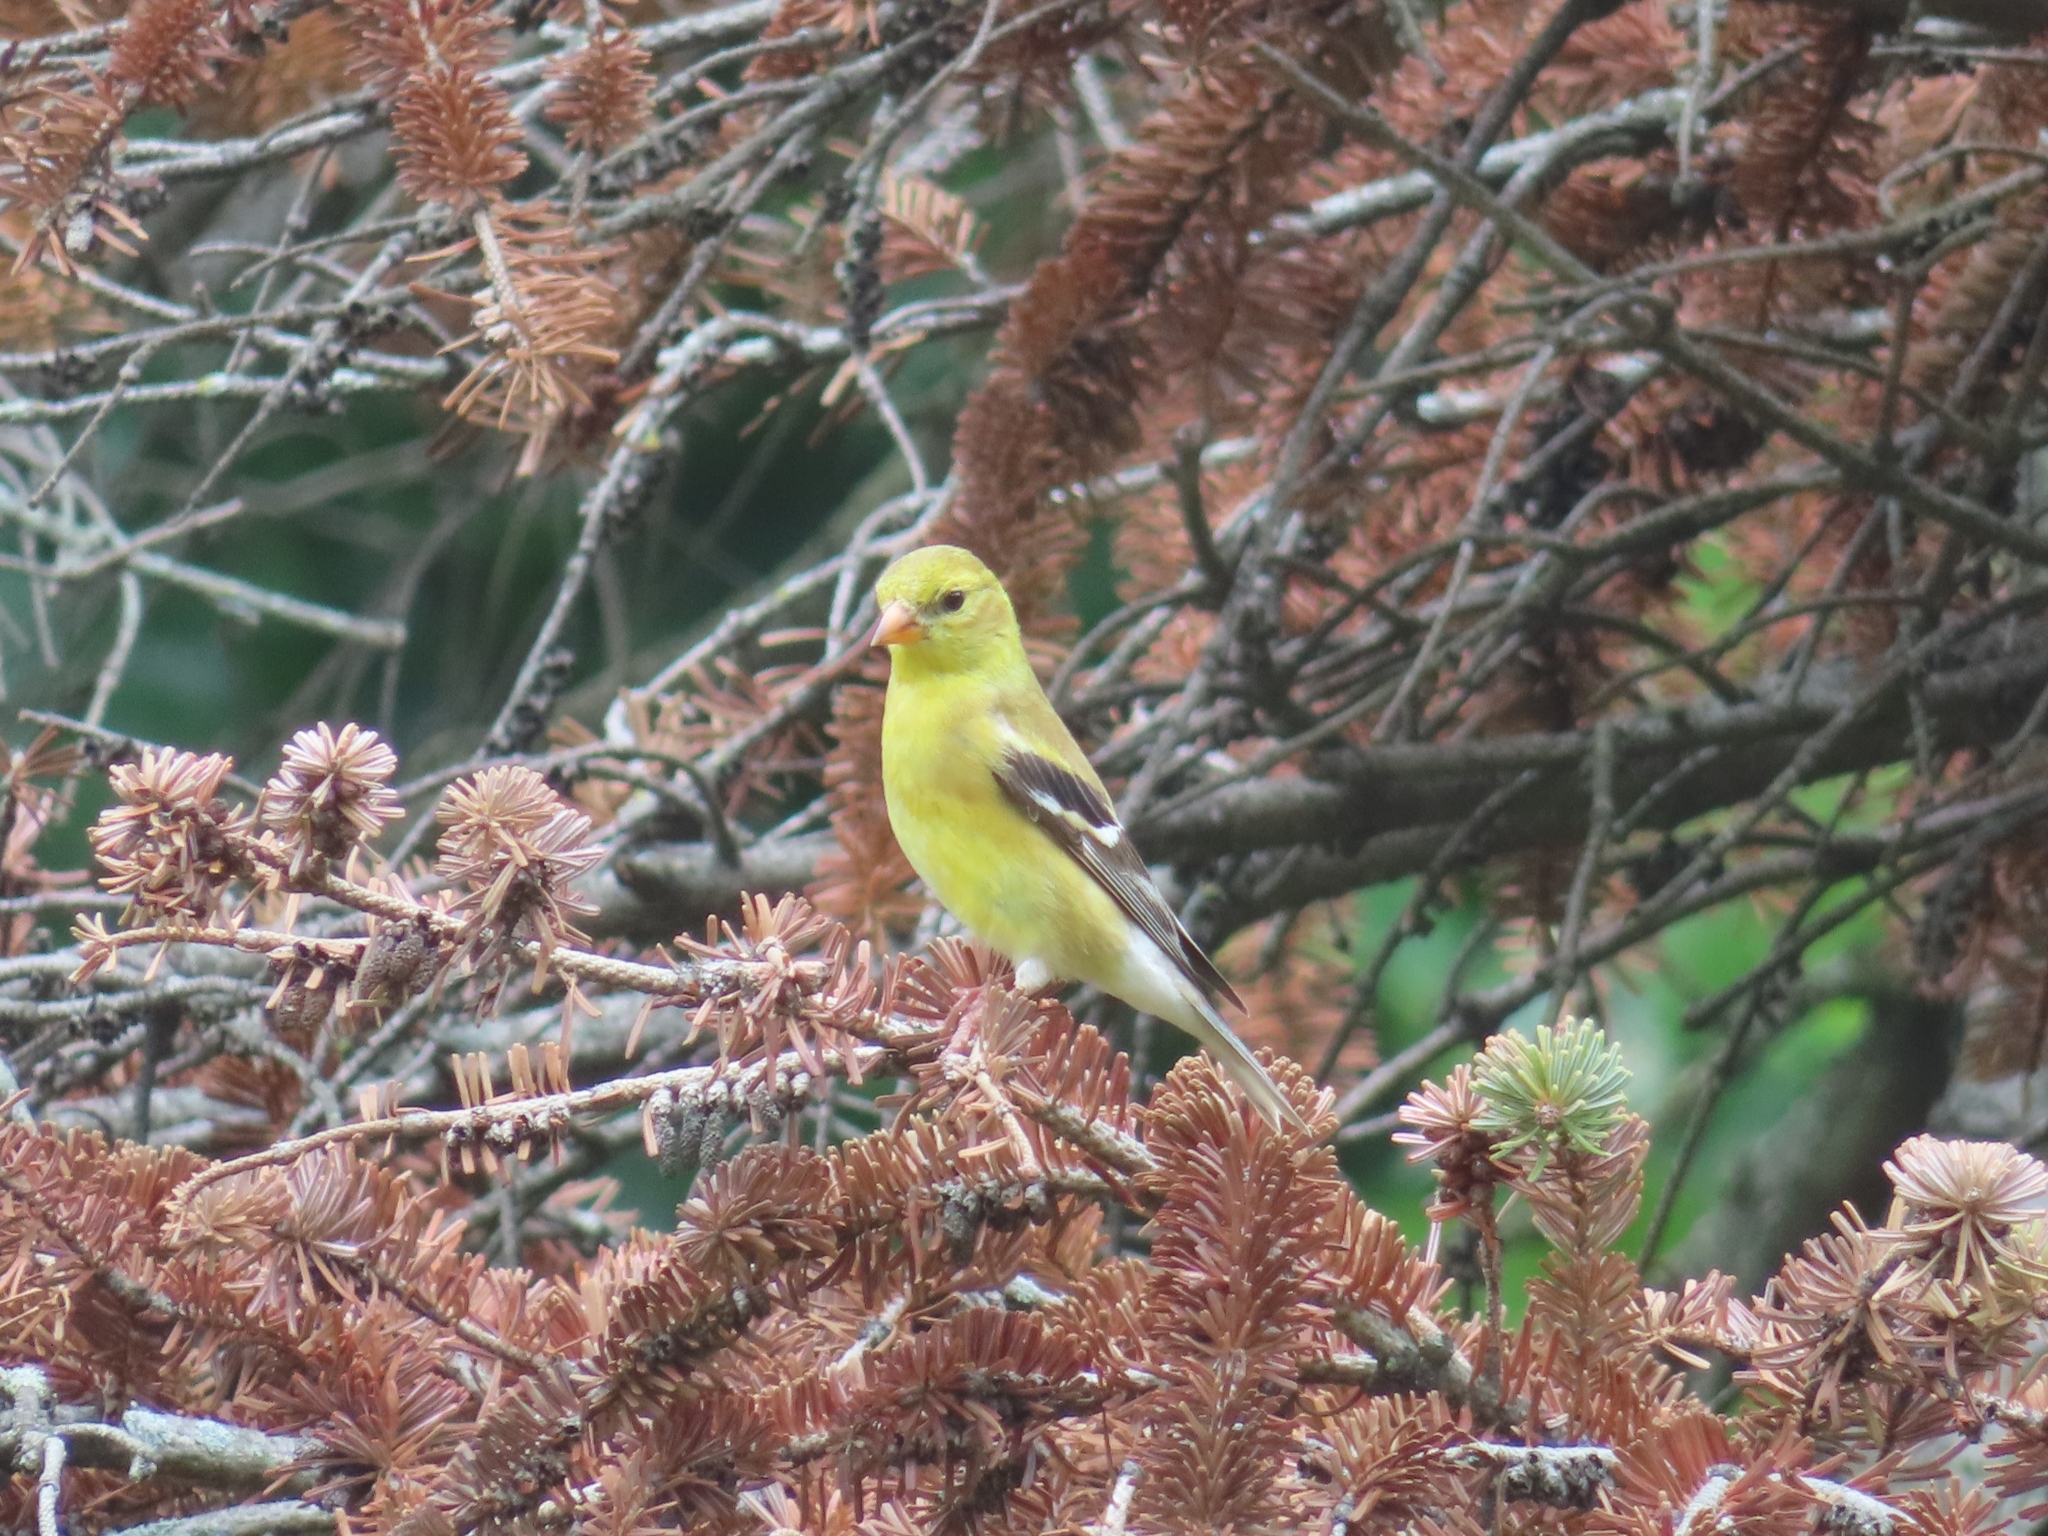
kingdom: Animalia
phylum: Chordata
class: Aves
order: Passeriformes
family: Fringillidae
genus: Spinus
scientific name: Spinus tristis
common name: American goldfinch
